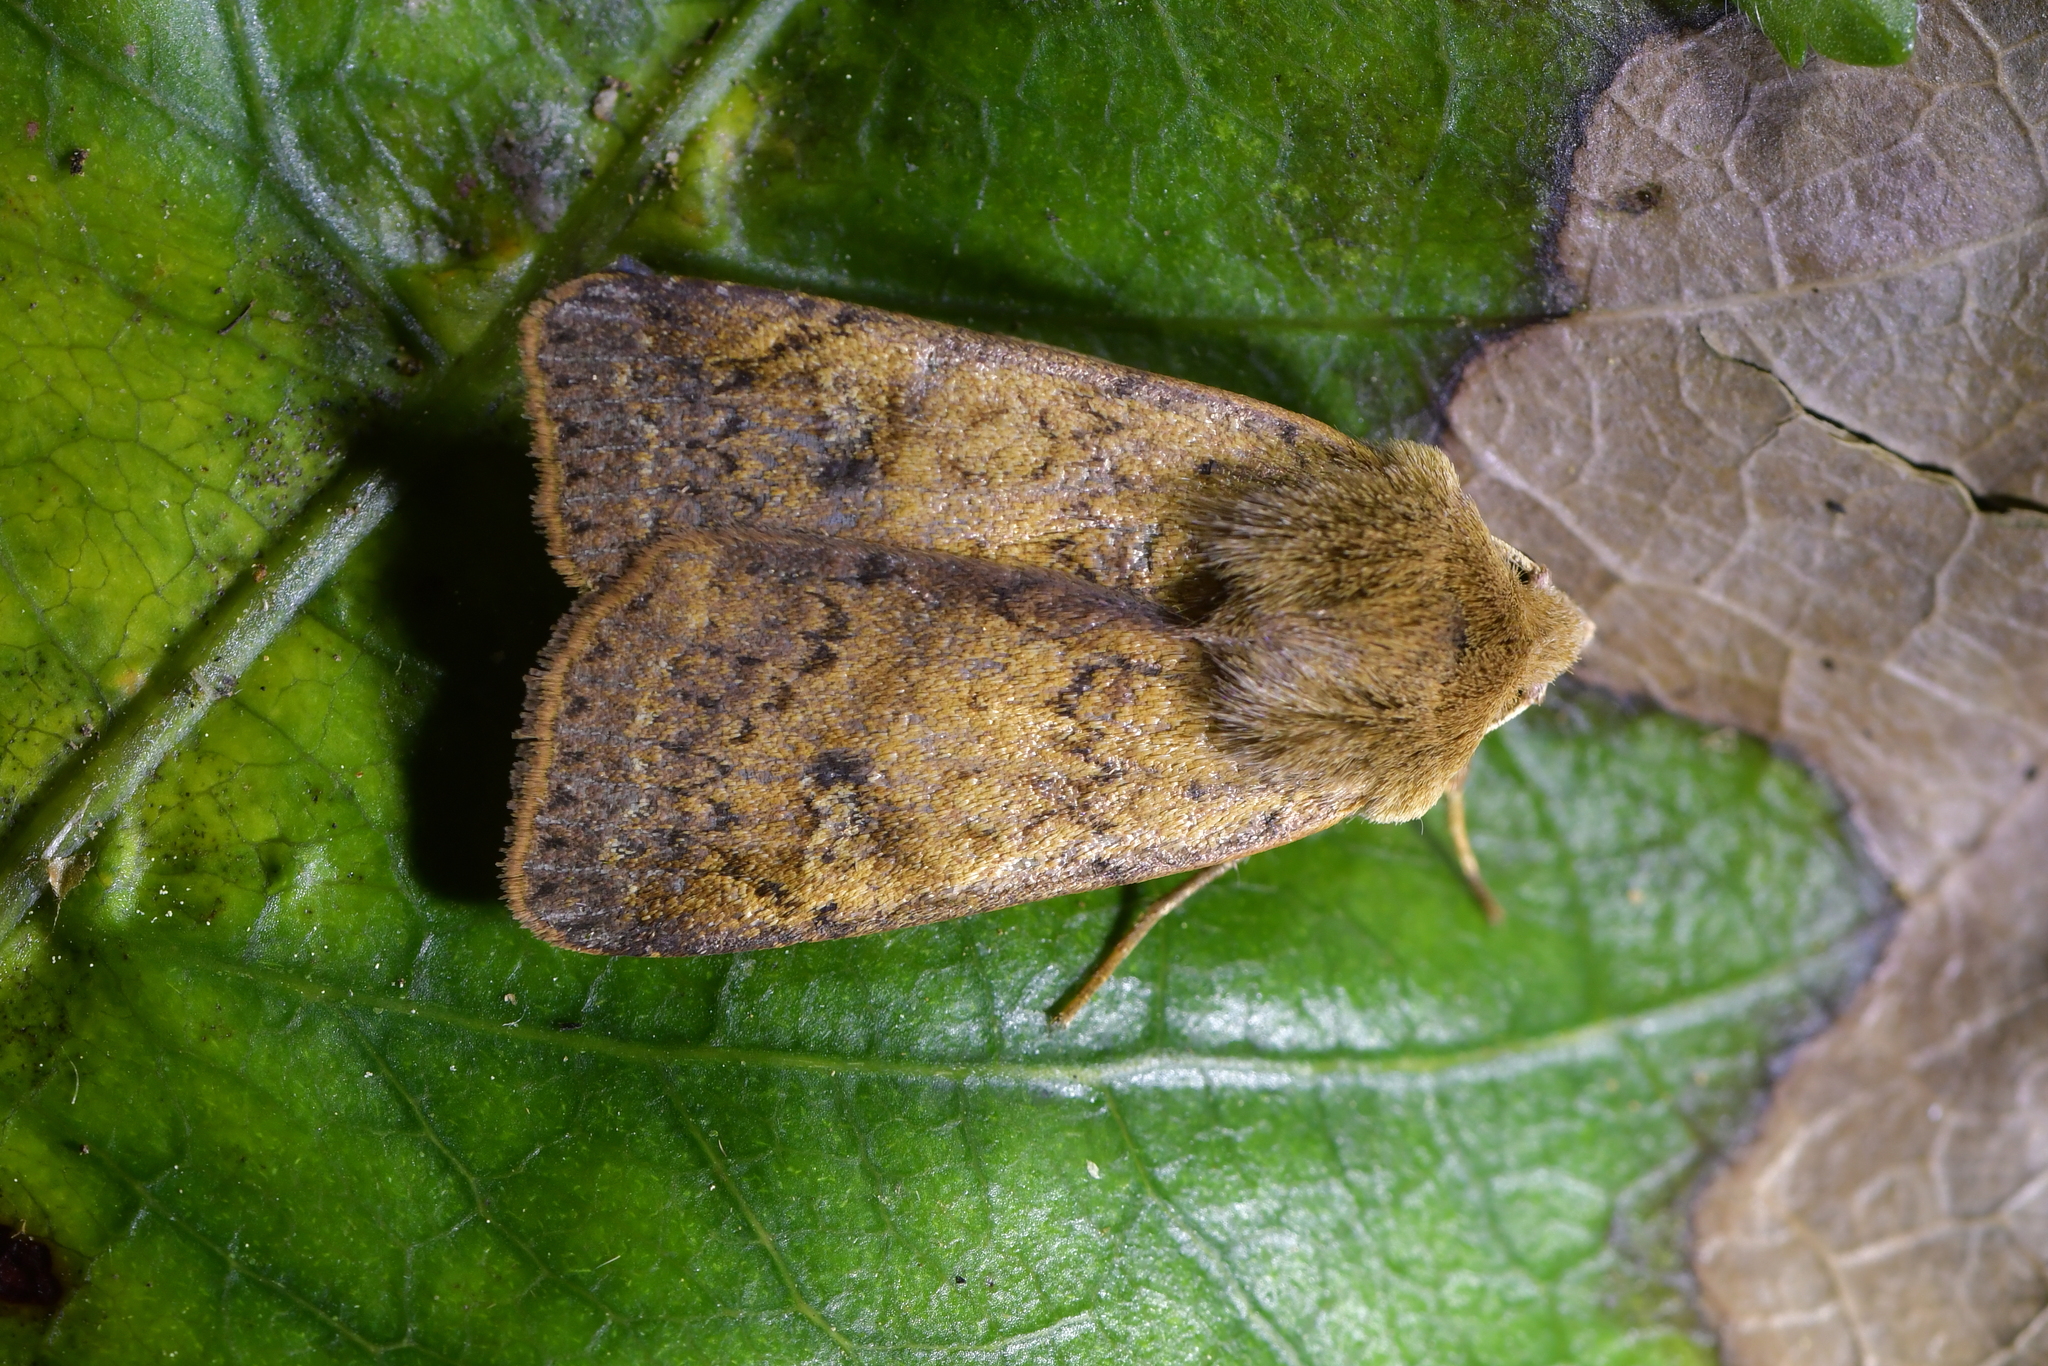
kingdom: Animalia
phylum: Arthropoda
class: Insecta
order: Lepidoptera
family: Noctuidae
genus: Diarsia
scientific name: Diarsia intermixta
